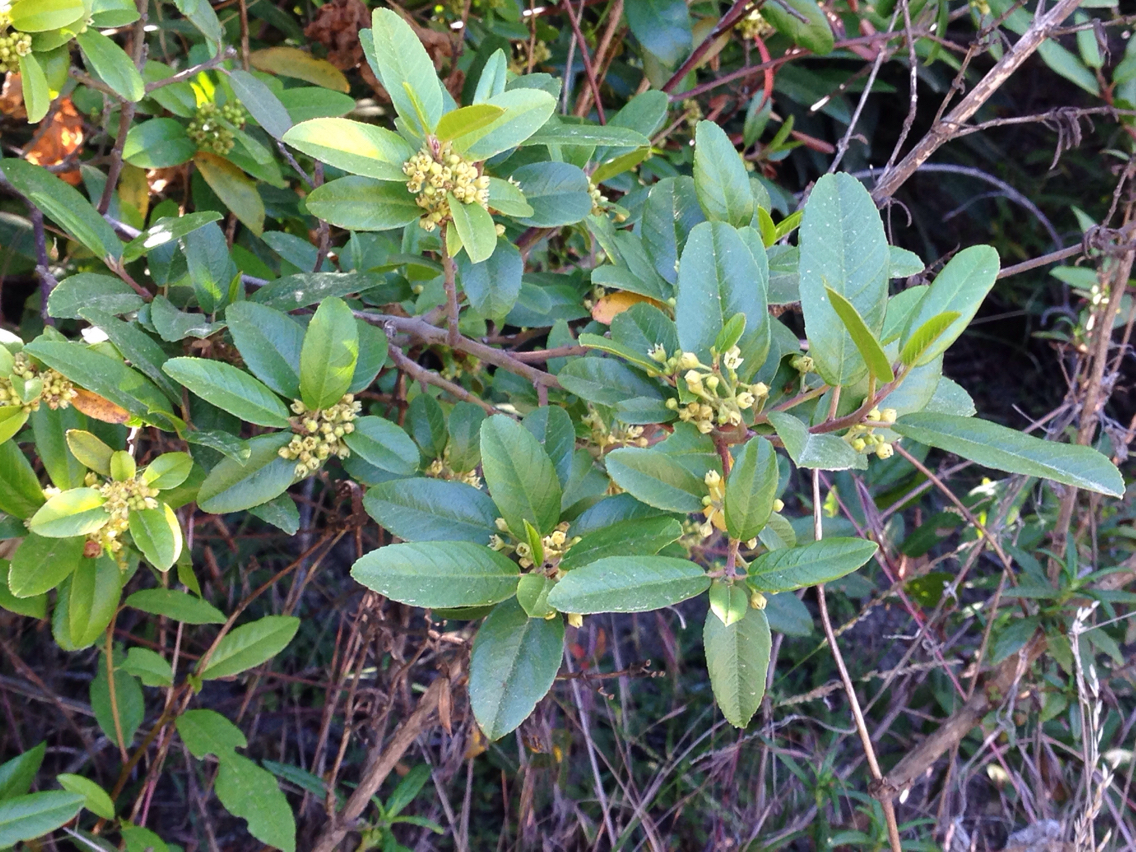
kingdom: Plantae
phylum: Tracheophyta
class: Magnoliopsida
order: Rosales
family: Rhamnaceae
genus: Frangula
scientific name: Frangula californica
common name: California buckthorn
